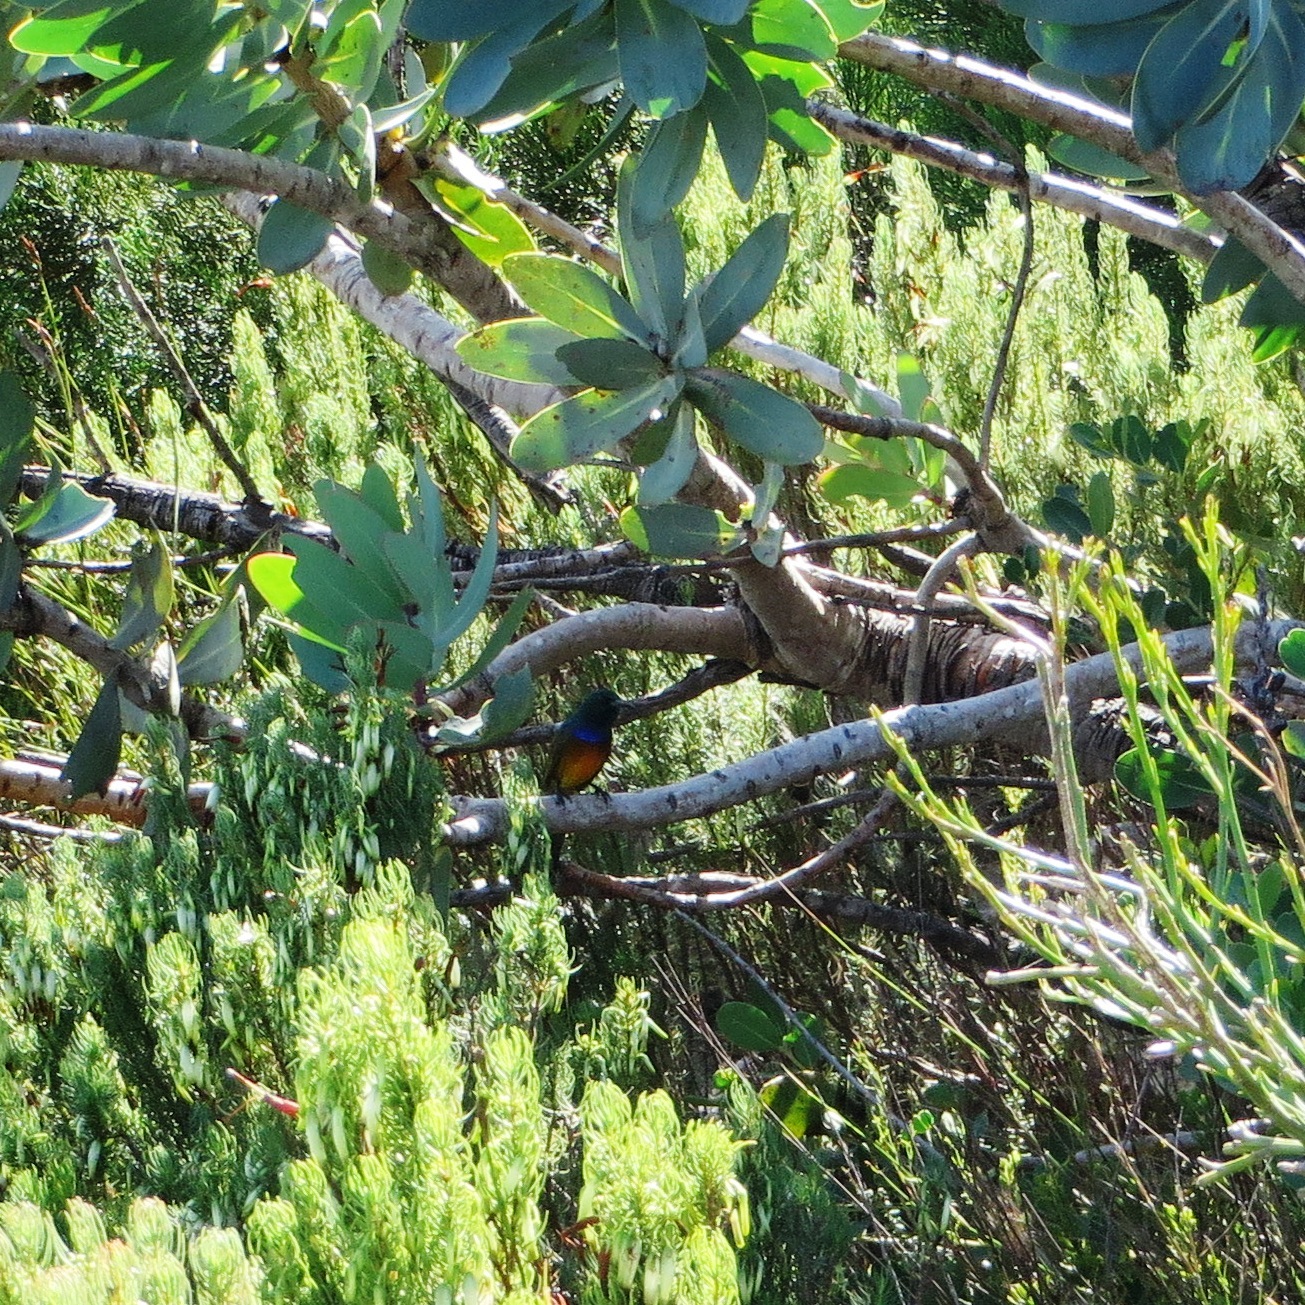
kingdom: Animalia
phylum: Chordata
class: Aves
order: Passeriformes
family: Nectariniidae
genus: Anthobaphes
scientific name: Anthobaphes violacea
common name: Orange-breasted sunbird
